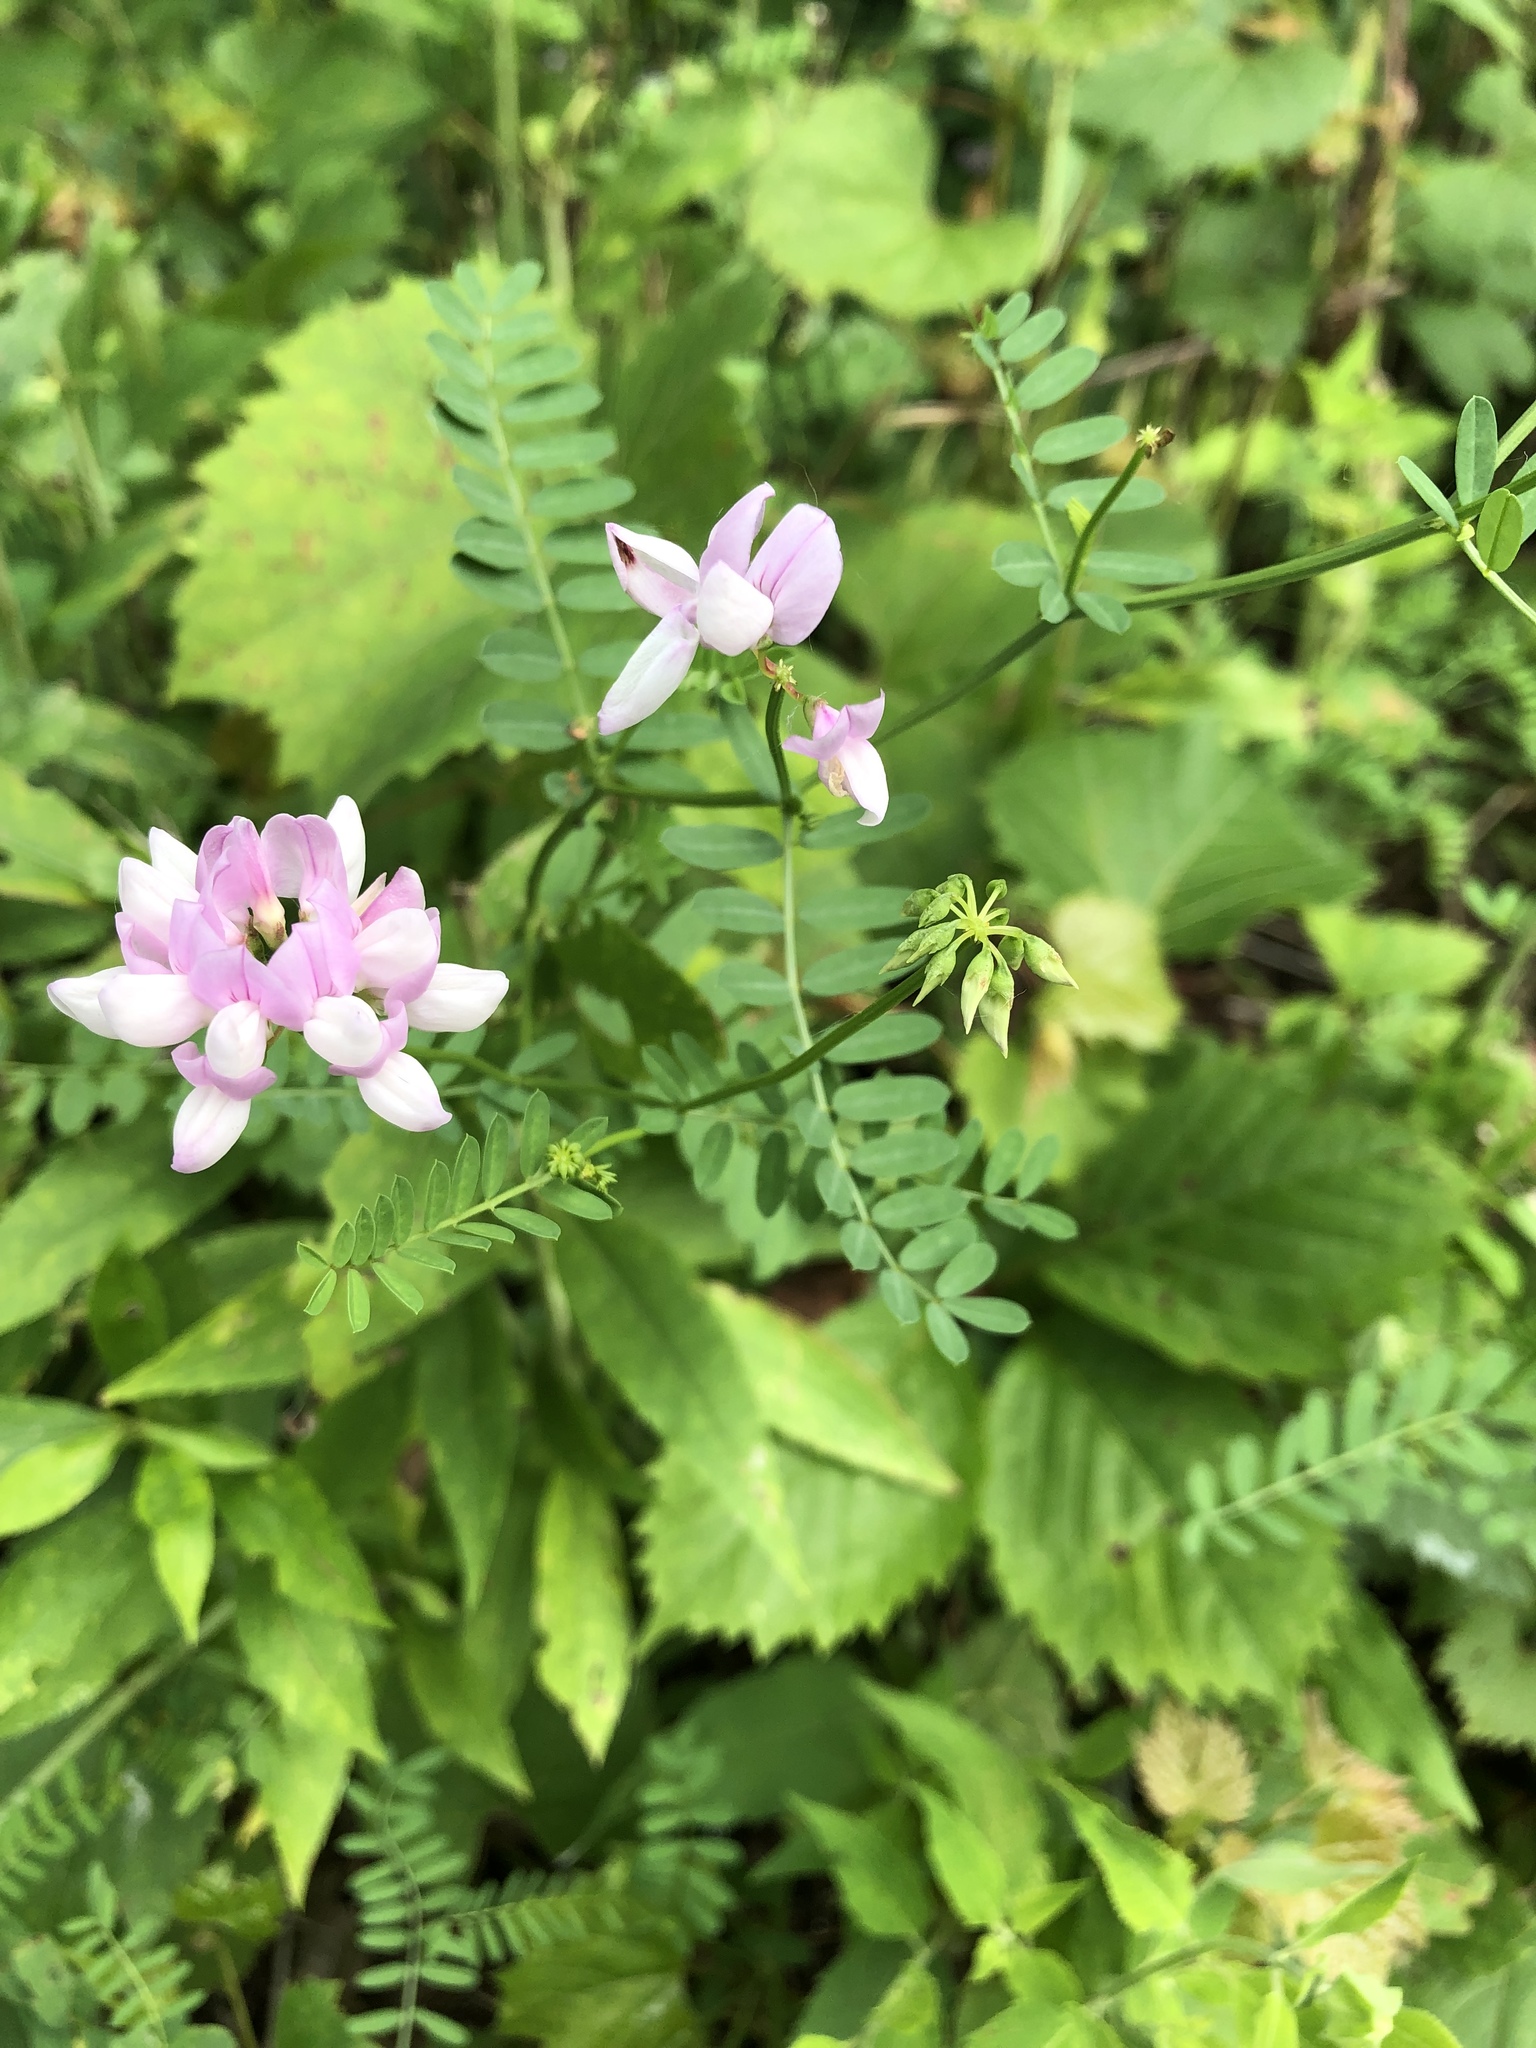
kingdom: Plantae
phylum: Tracheophyta
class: Magnoliopsida
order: Fabales
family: Fabaceae
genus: Coronilla
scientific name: Coronilla varia
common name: Crownvetch
